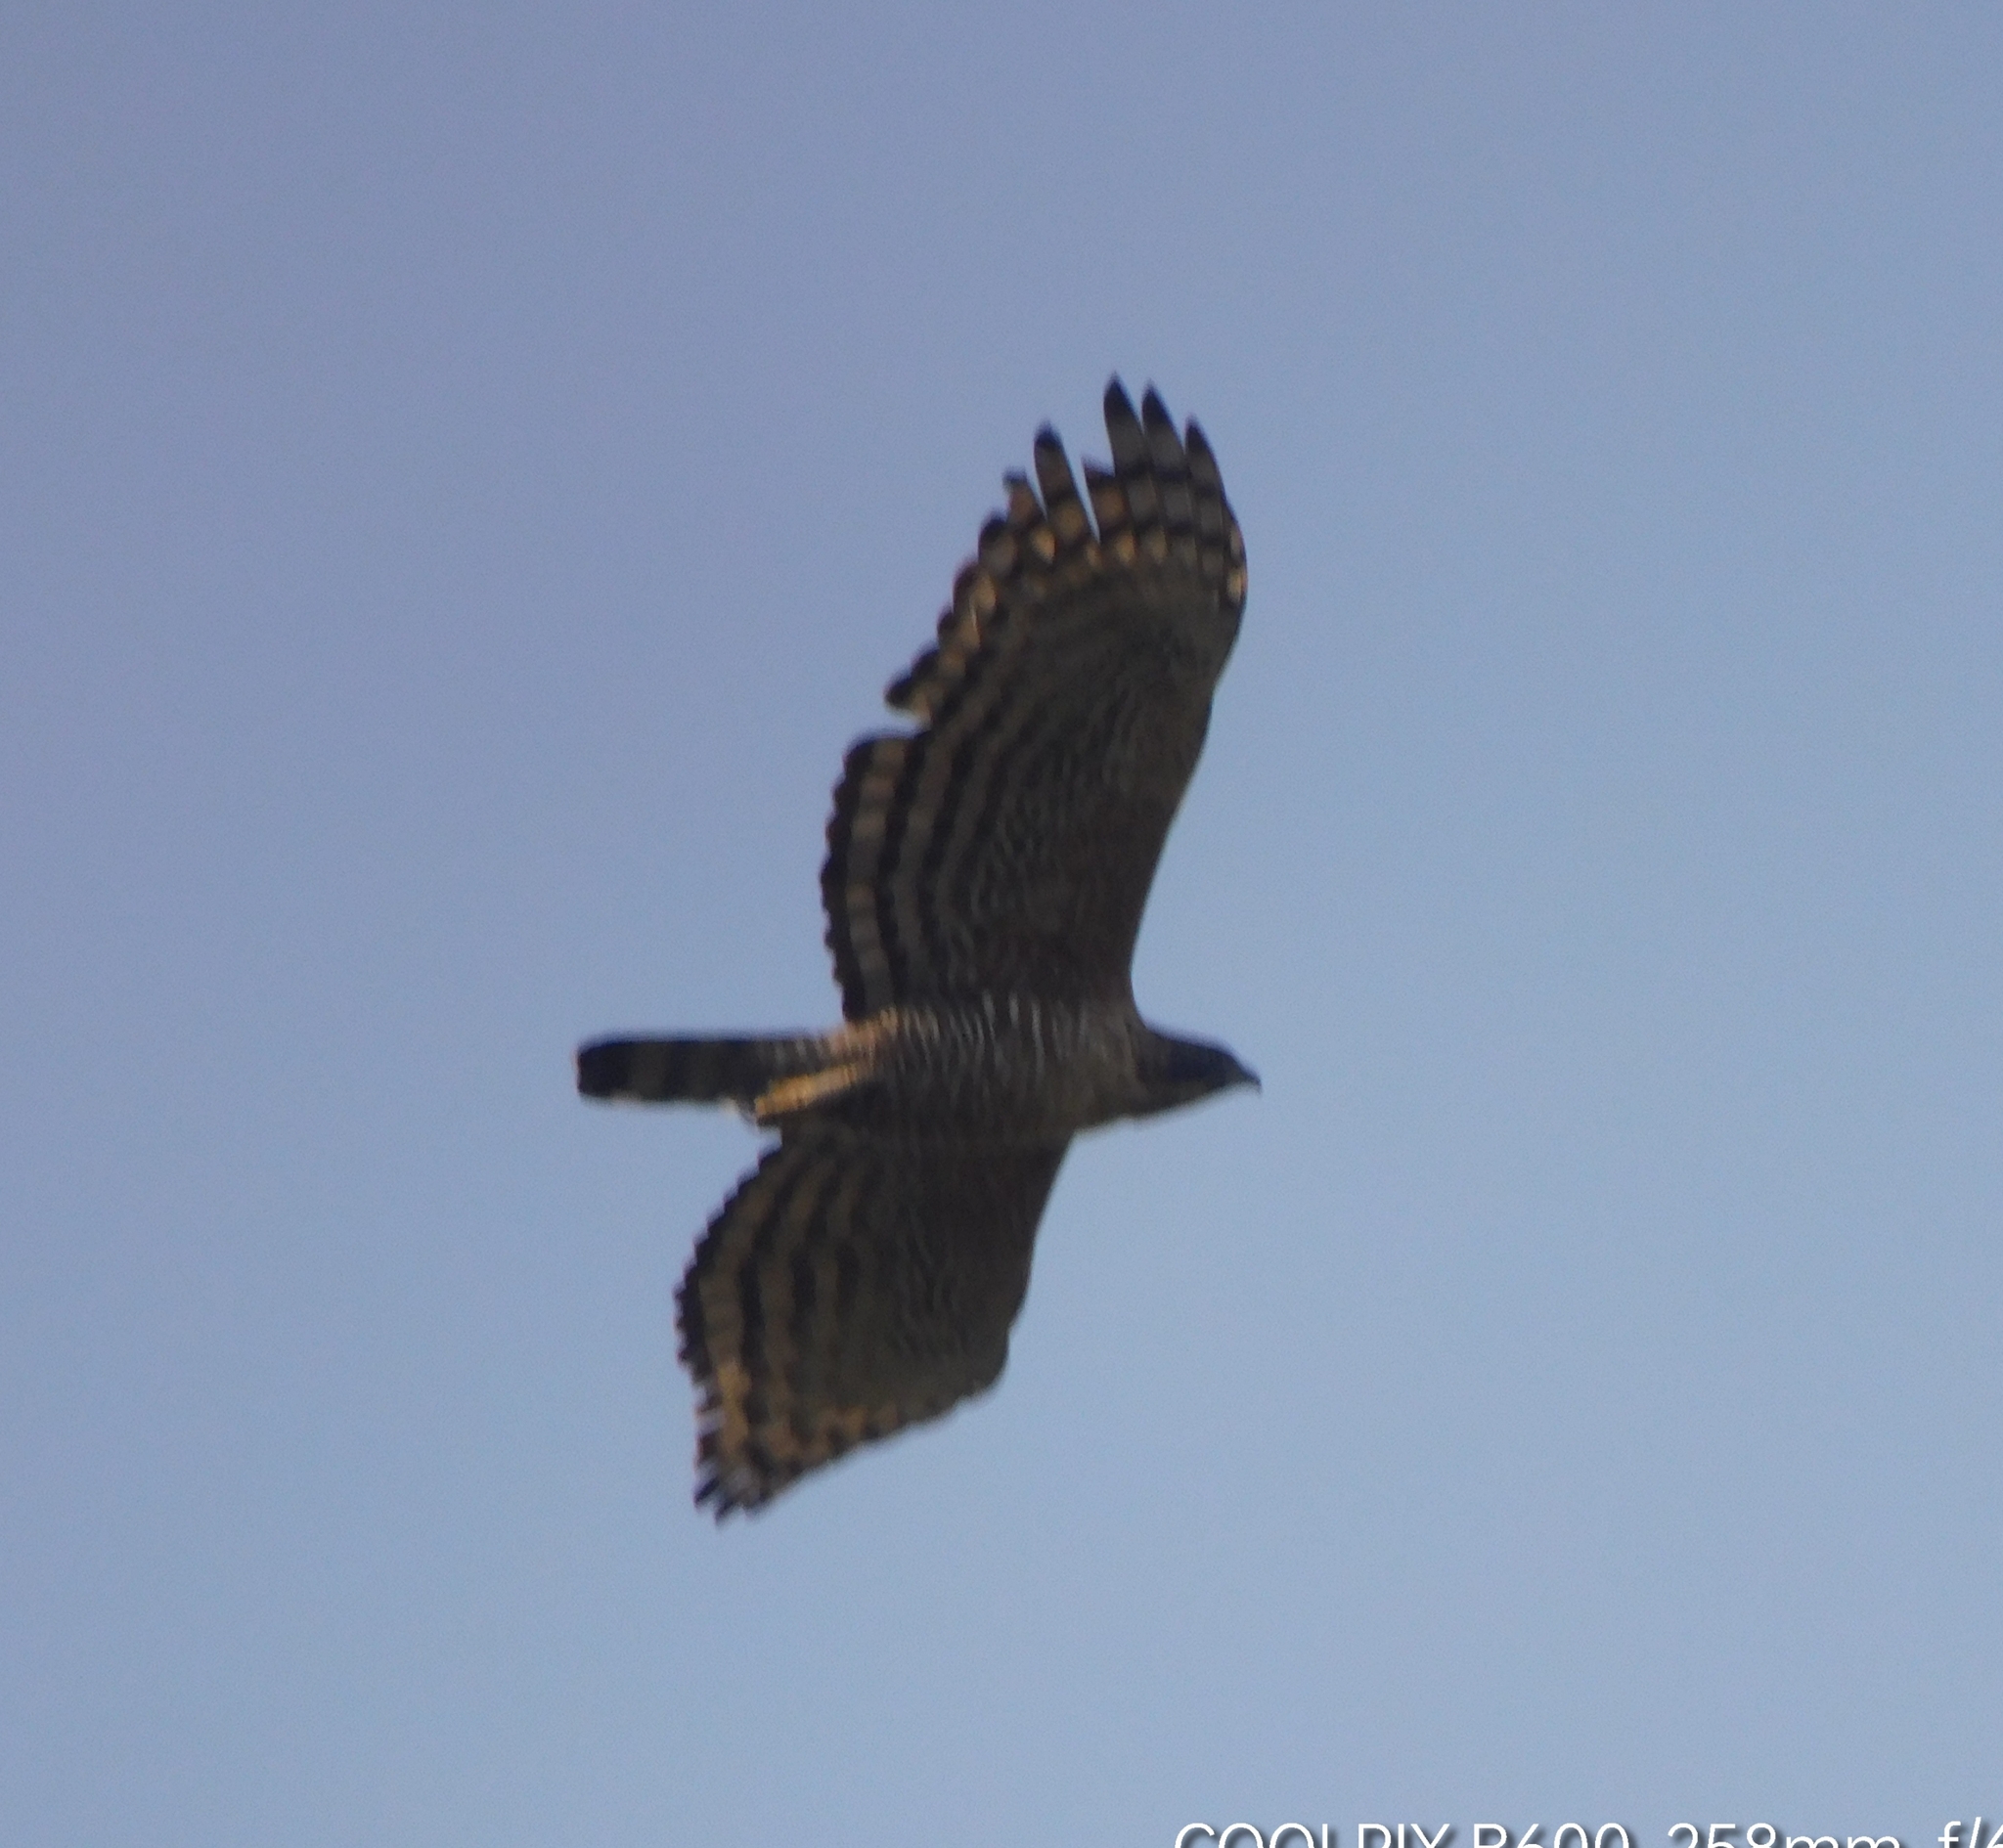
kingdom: Animalia
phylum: Chordata
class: Aves
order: Accipitriformes
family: Accipitridae
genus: Nisaetus
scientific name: Nisaetus nipalensis
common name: Mountain hawk-eagle
